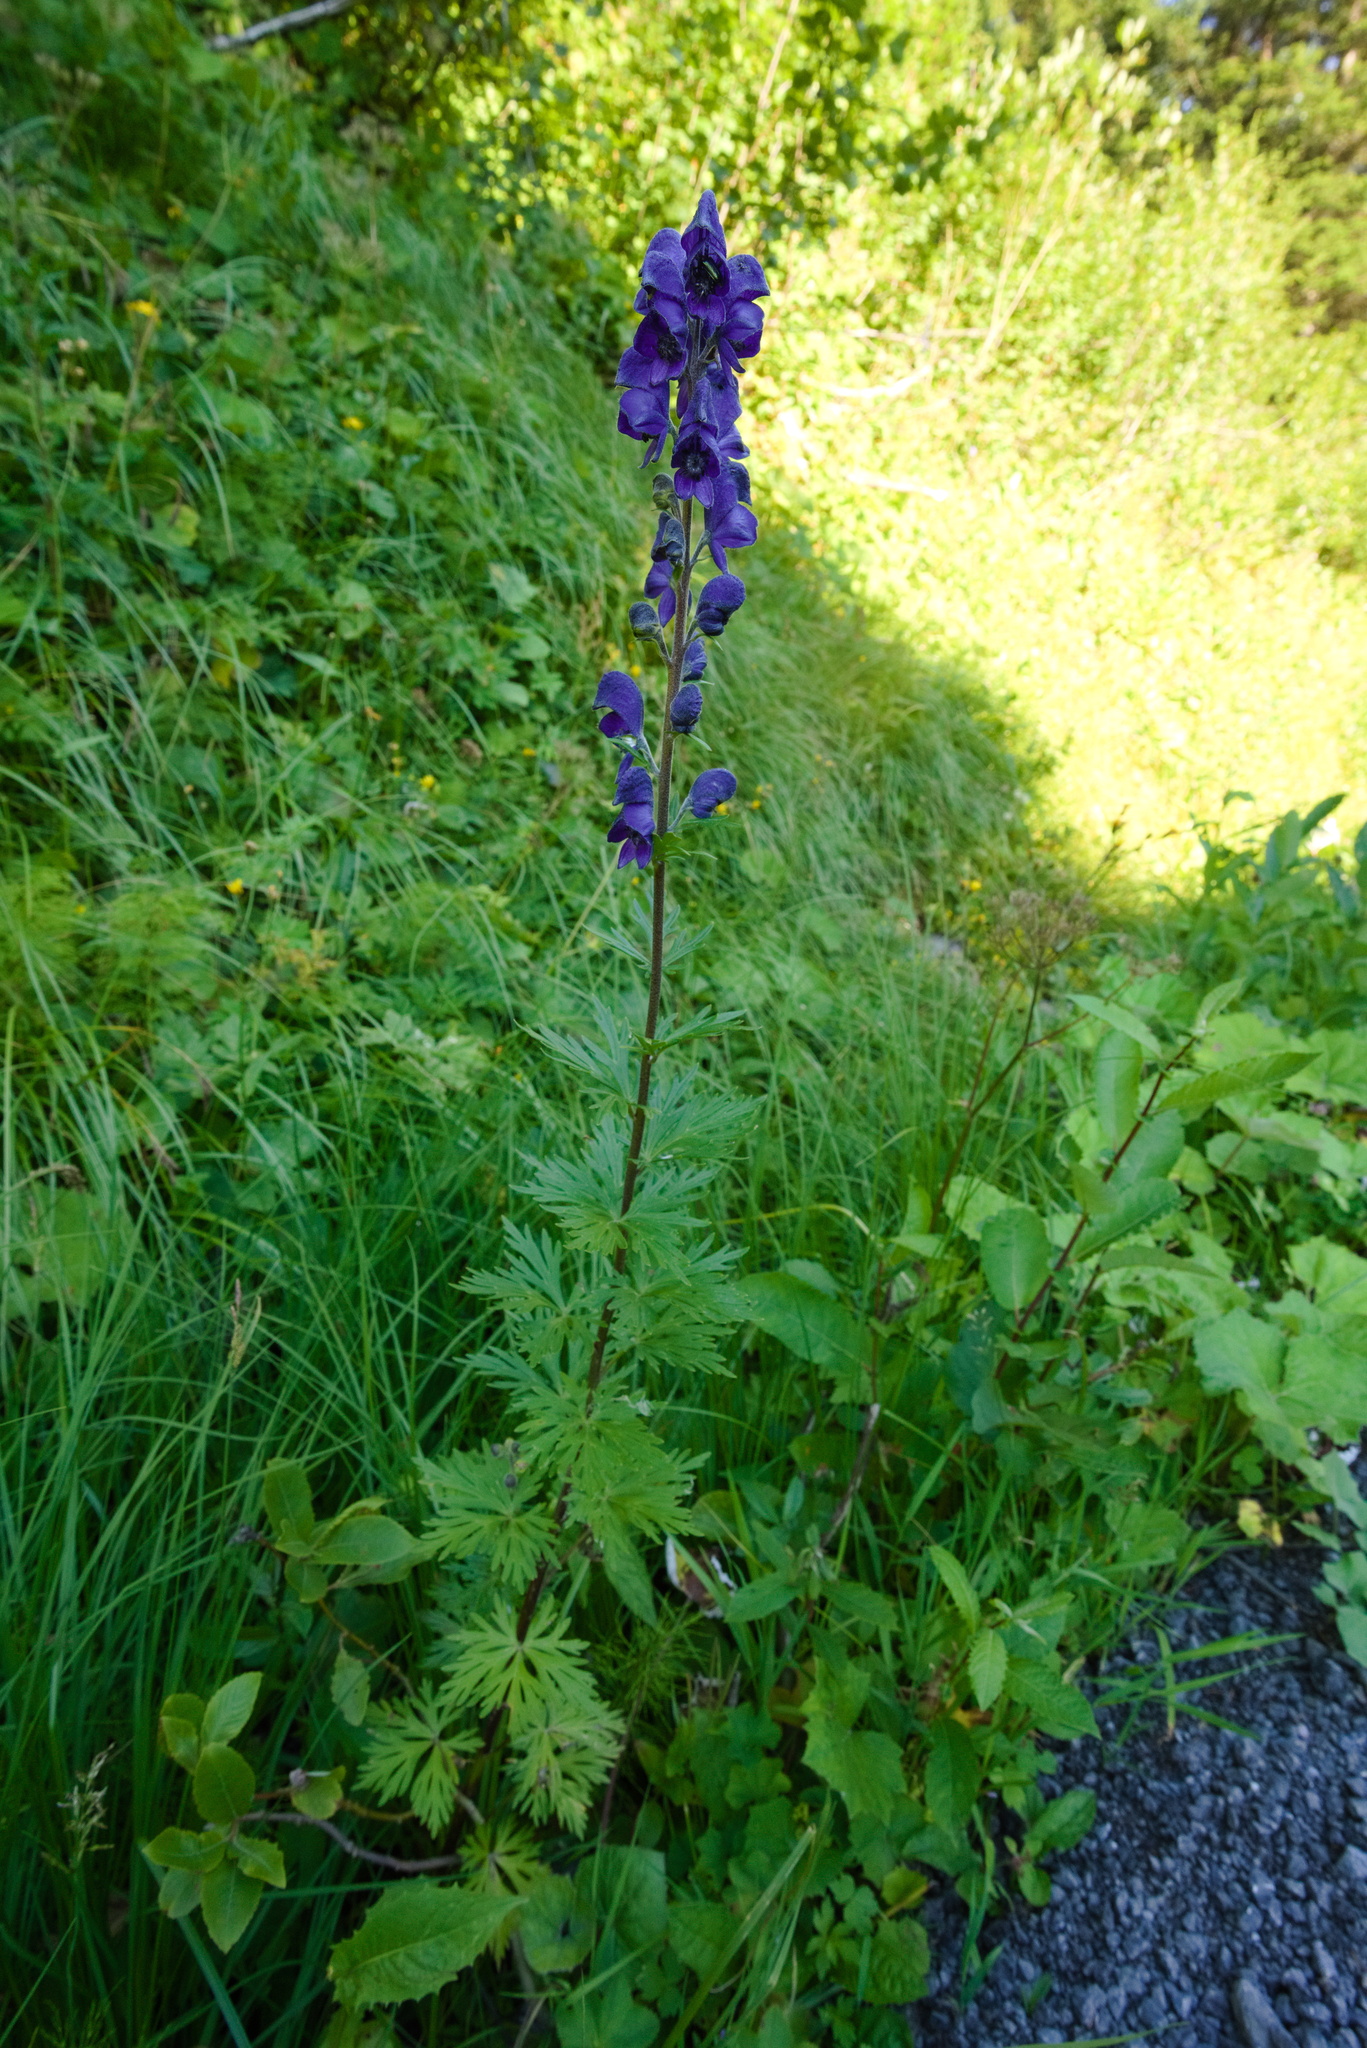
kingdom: Plantae
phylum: Tracheophyta
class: Magnoliopsida
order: Ranunculales
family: Ranunculaceae
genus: Aconitum
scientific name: Aconitum napellus
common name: Garden monkshood
